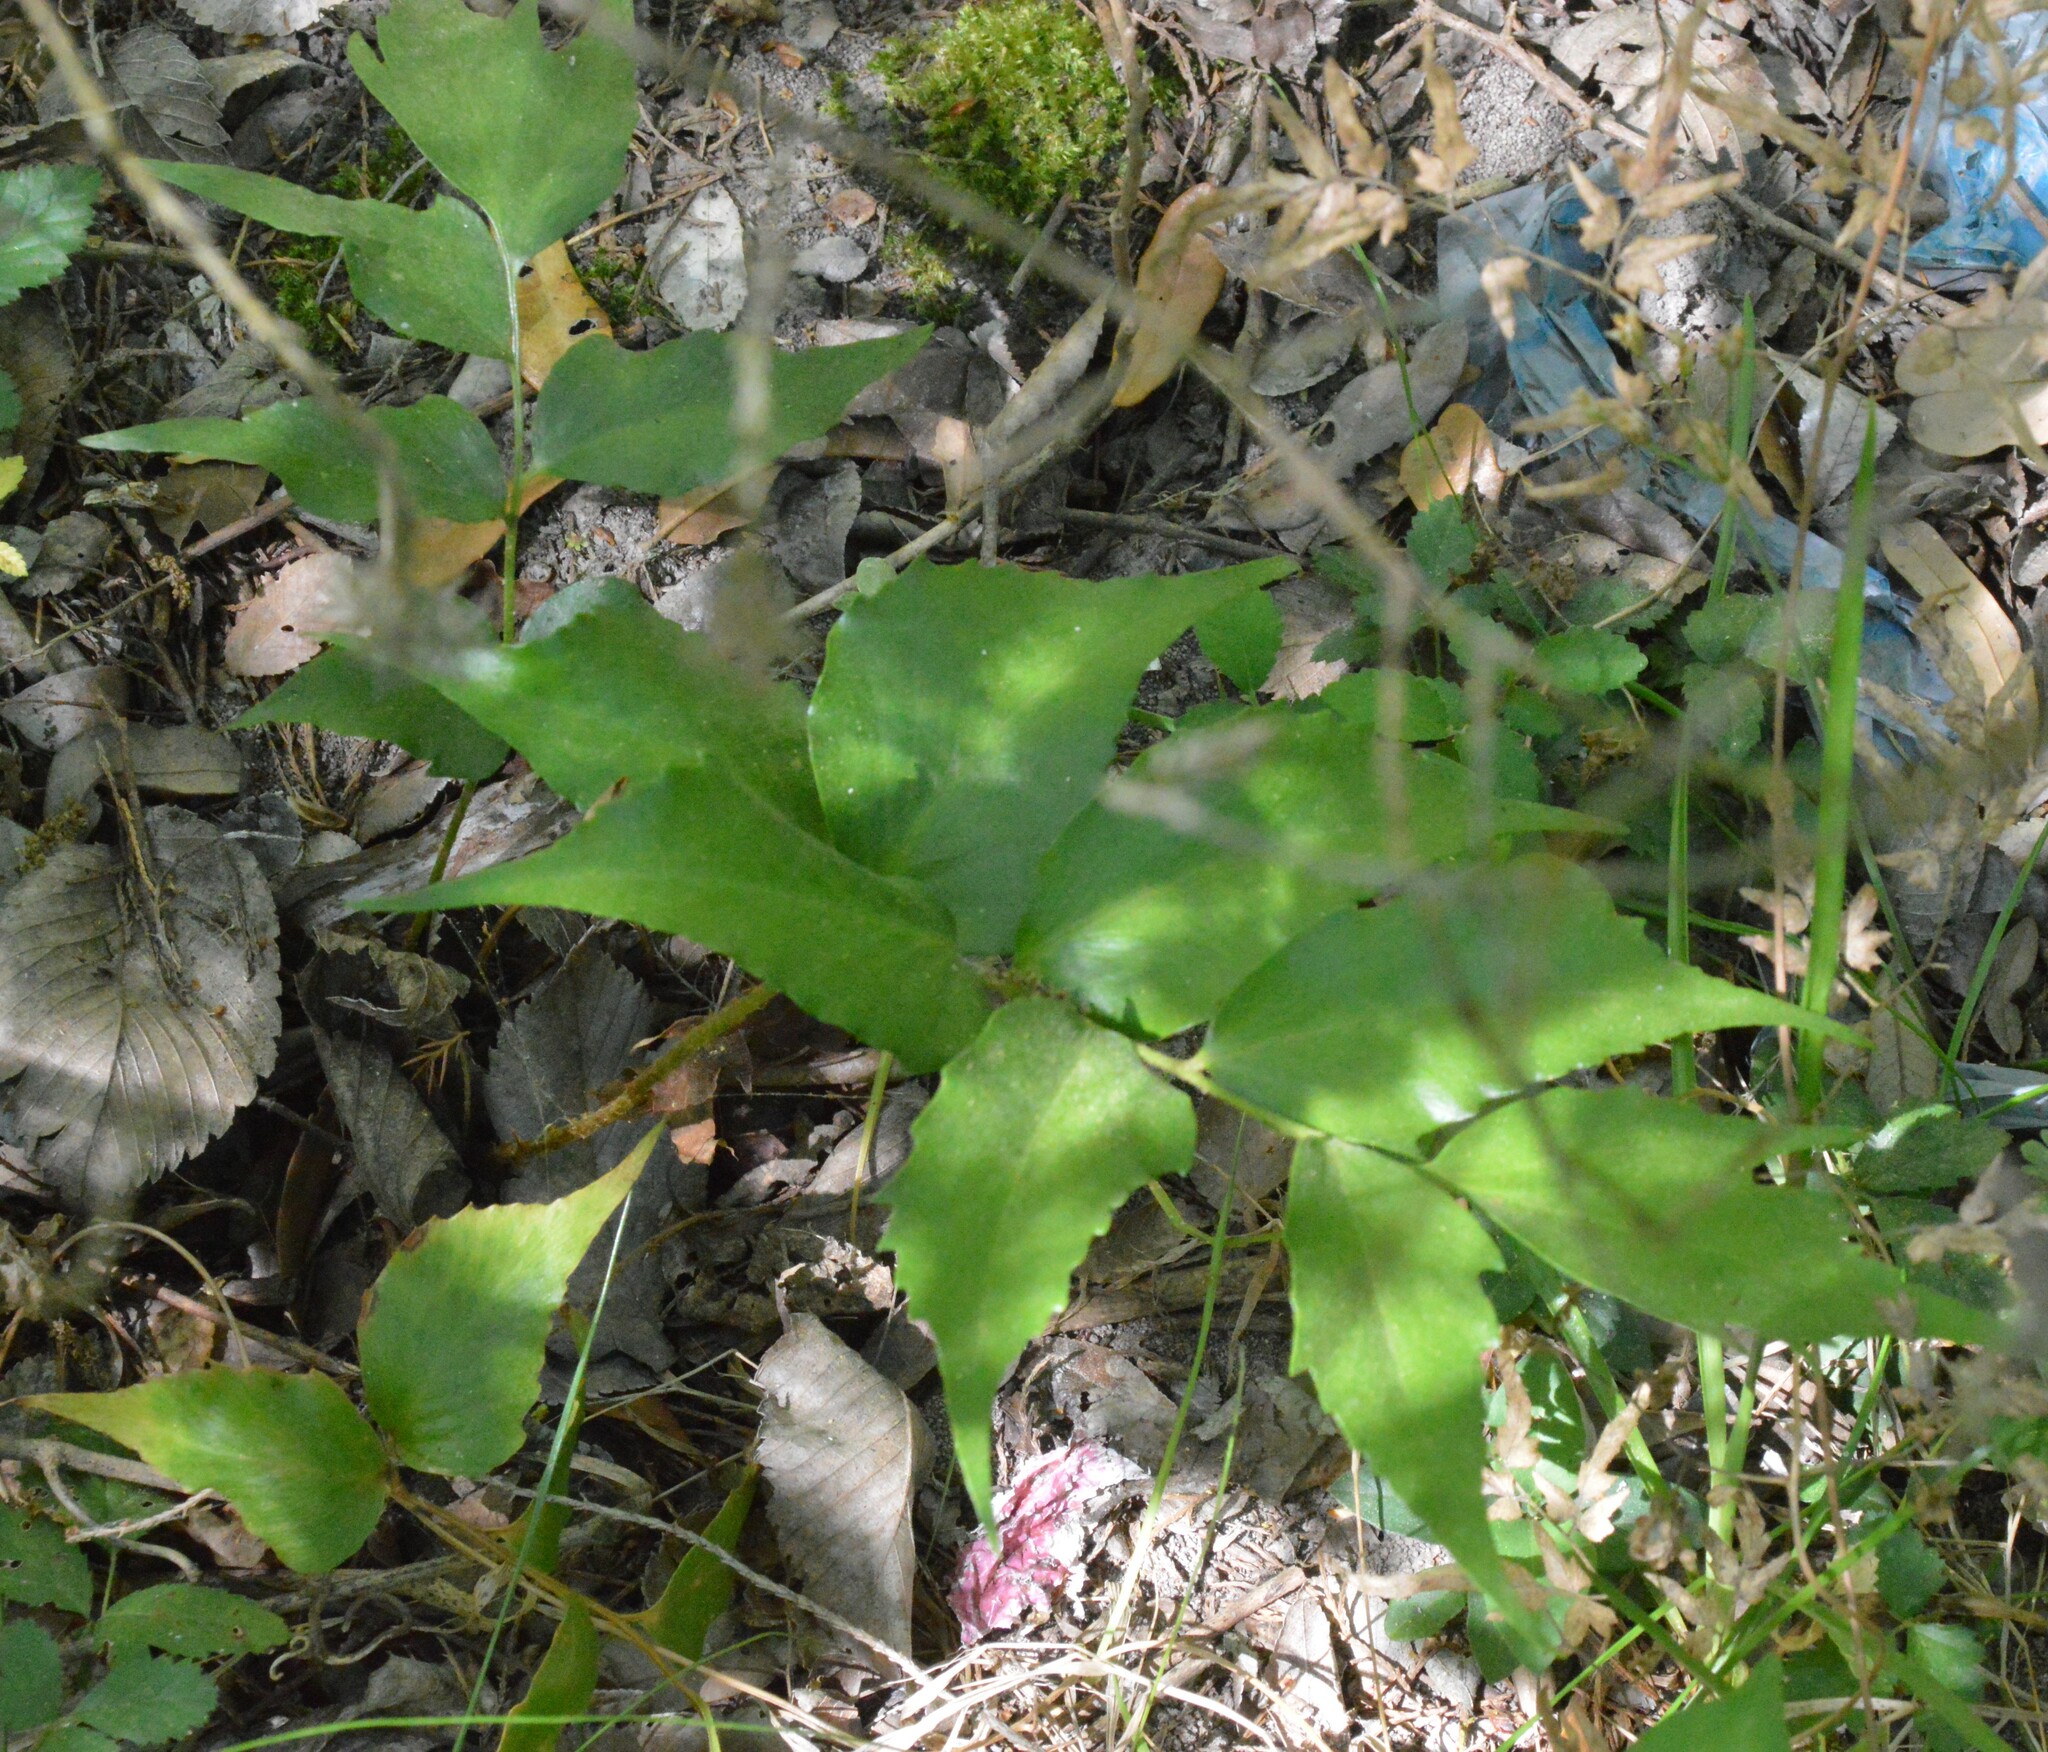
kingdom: Plantae
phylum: Tracheophyta
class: Polypodiopsida
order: Polypodiales
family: Dryopteridaceae
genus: Cyrtomium
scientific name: Cyrtomium falcatum
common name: House holly-fern
